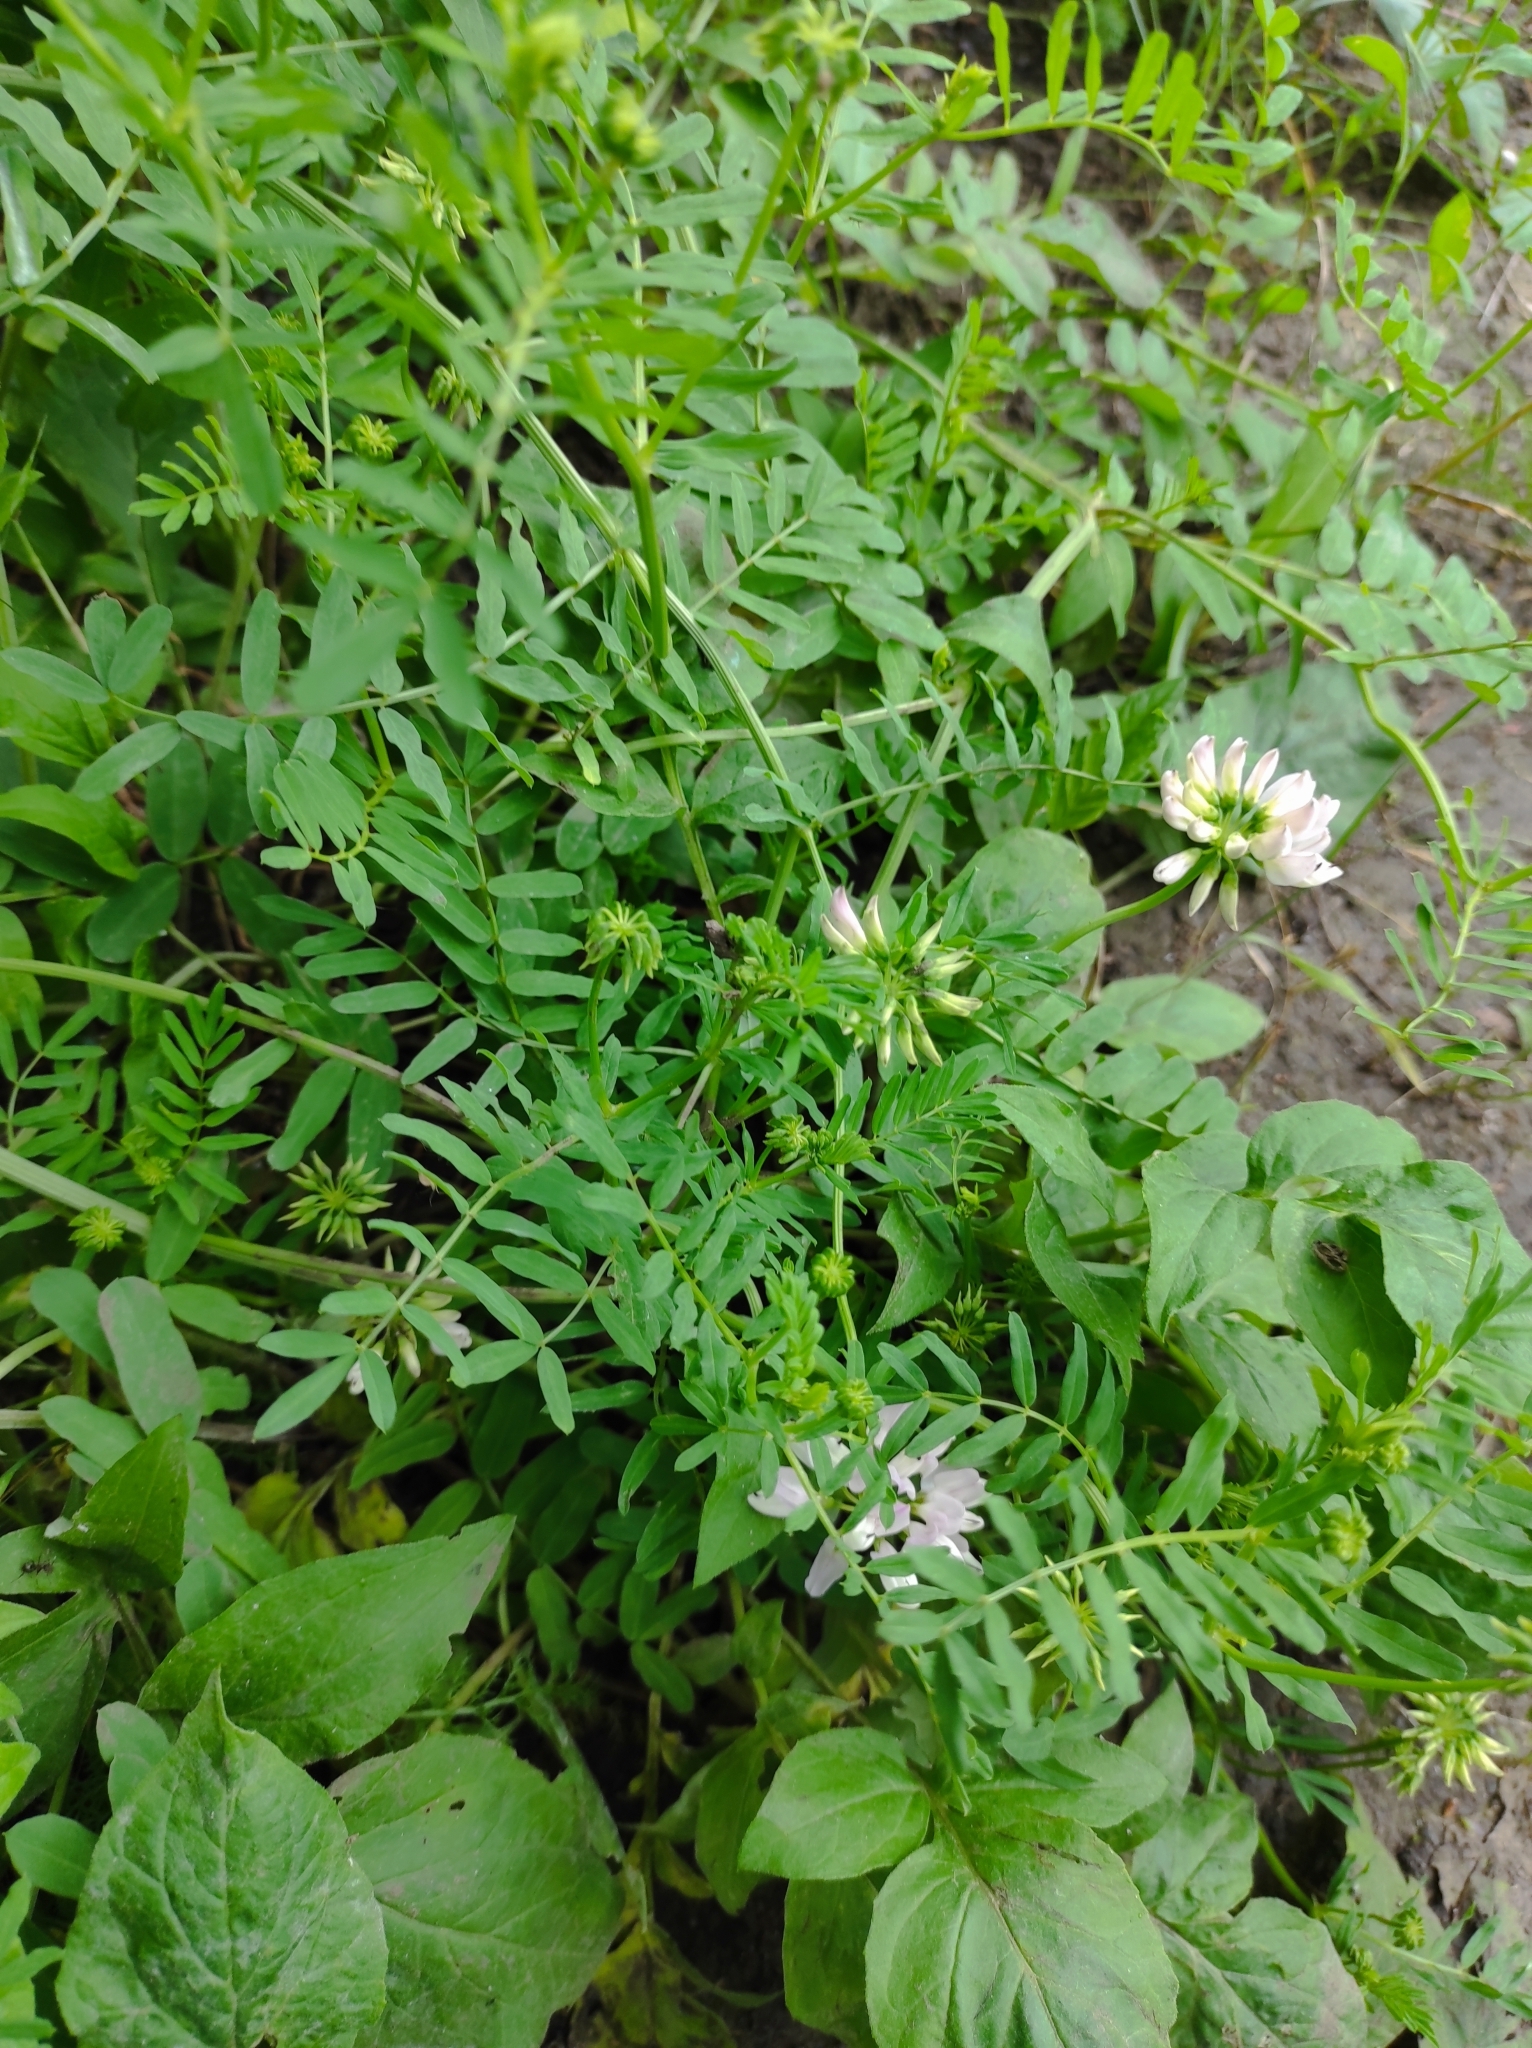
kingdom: Plantae
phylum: Tracheophyta
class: Magnoliopsida
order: Fabales
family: Fabaceae
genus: Coronilla
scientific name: Coronilla varia
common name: Crownvetch
